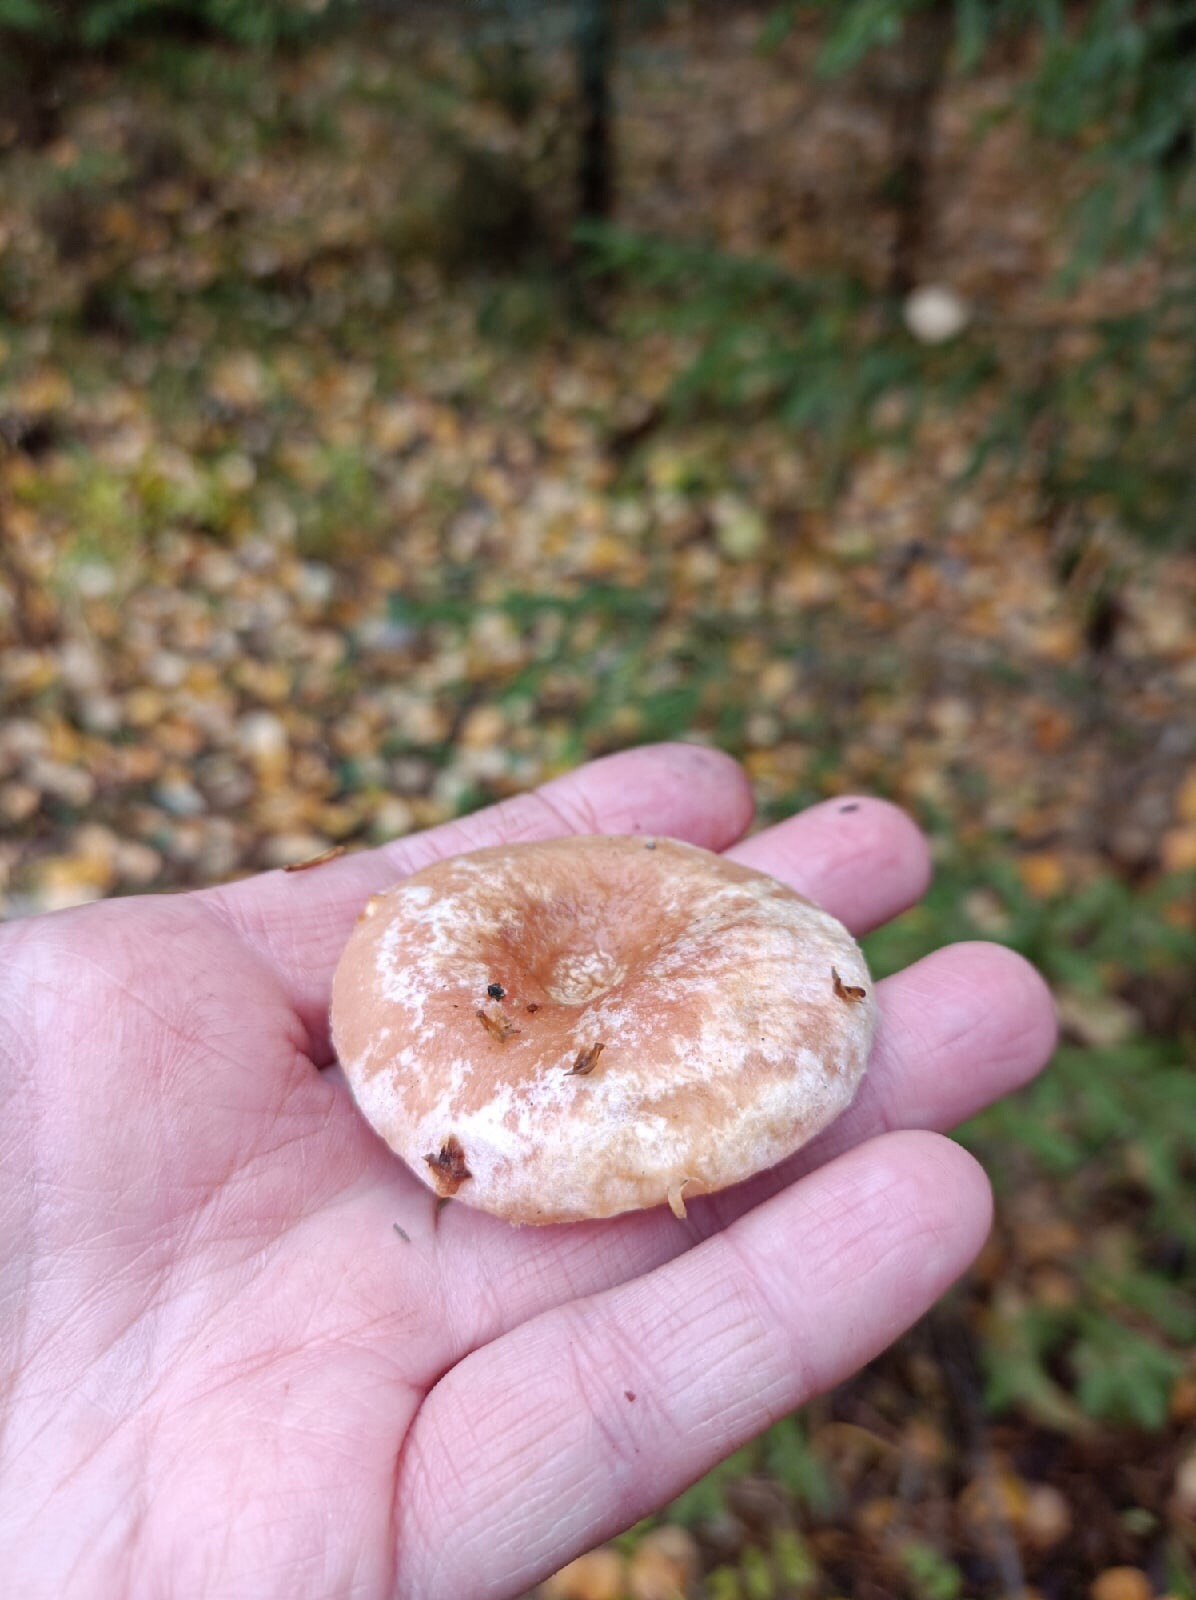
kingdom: Fungi
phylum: Basidiomycota
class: Agaricomycetes
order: Russulales
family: Russulaceae
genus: Lactarius
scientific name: Lactarius torminosus
